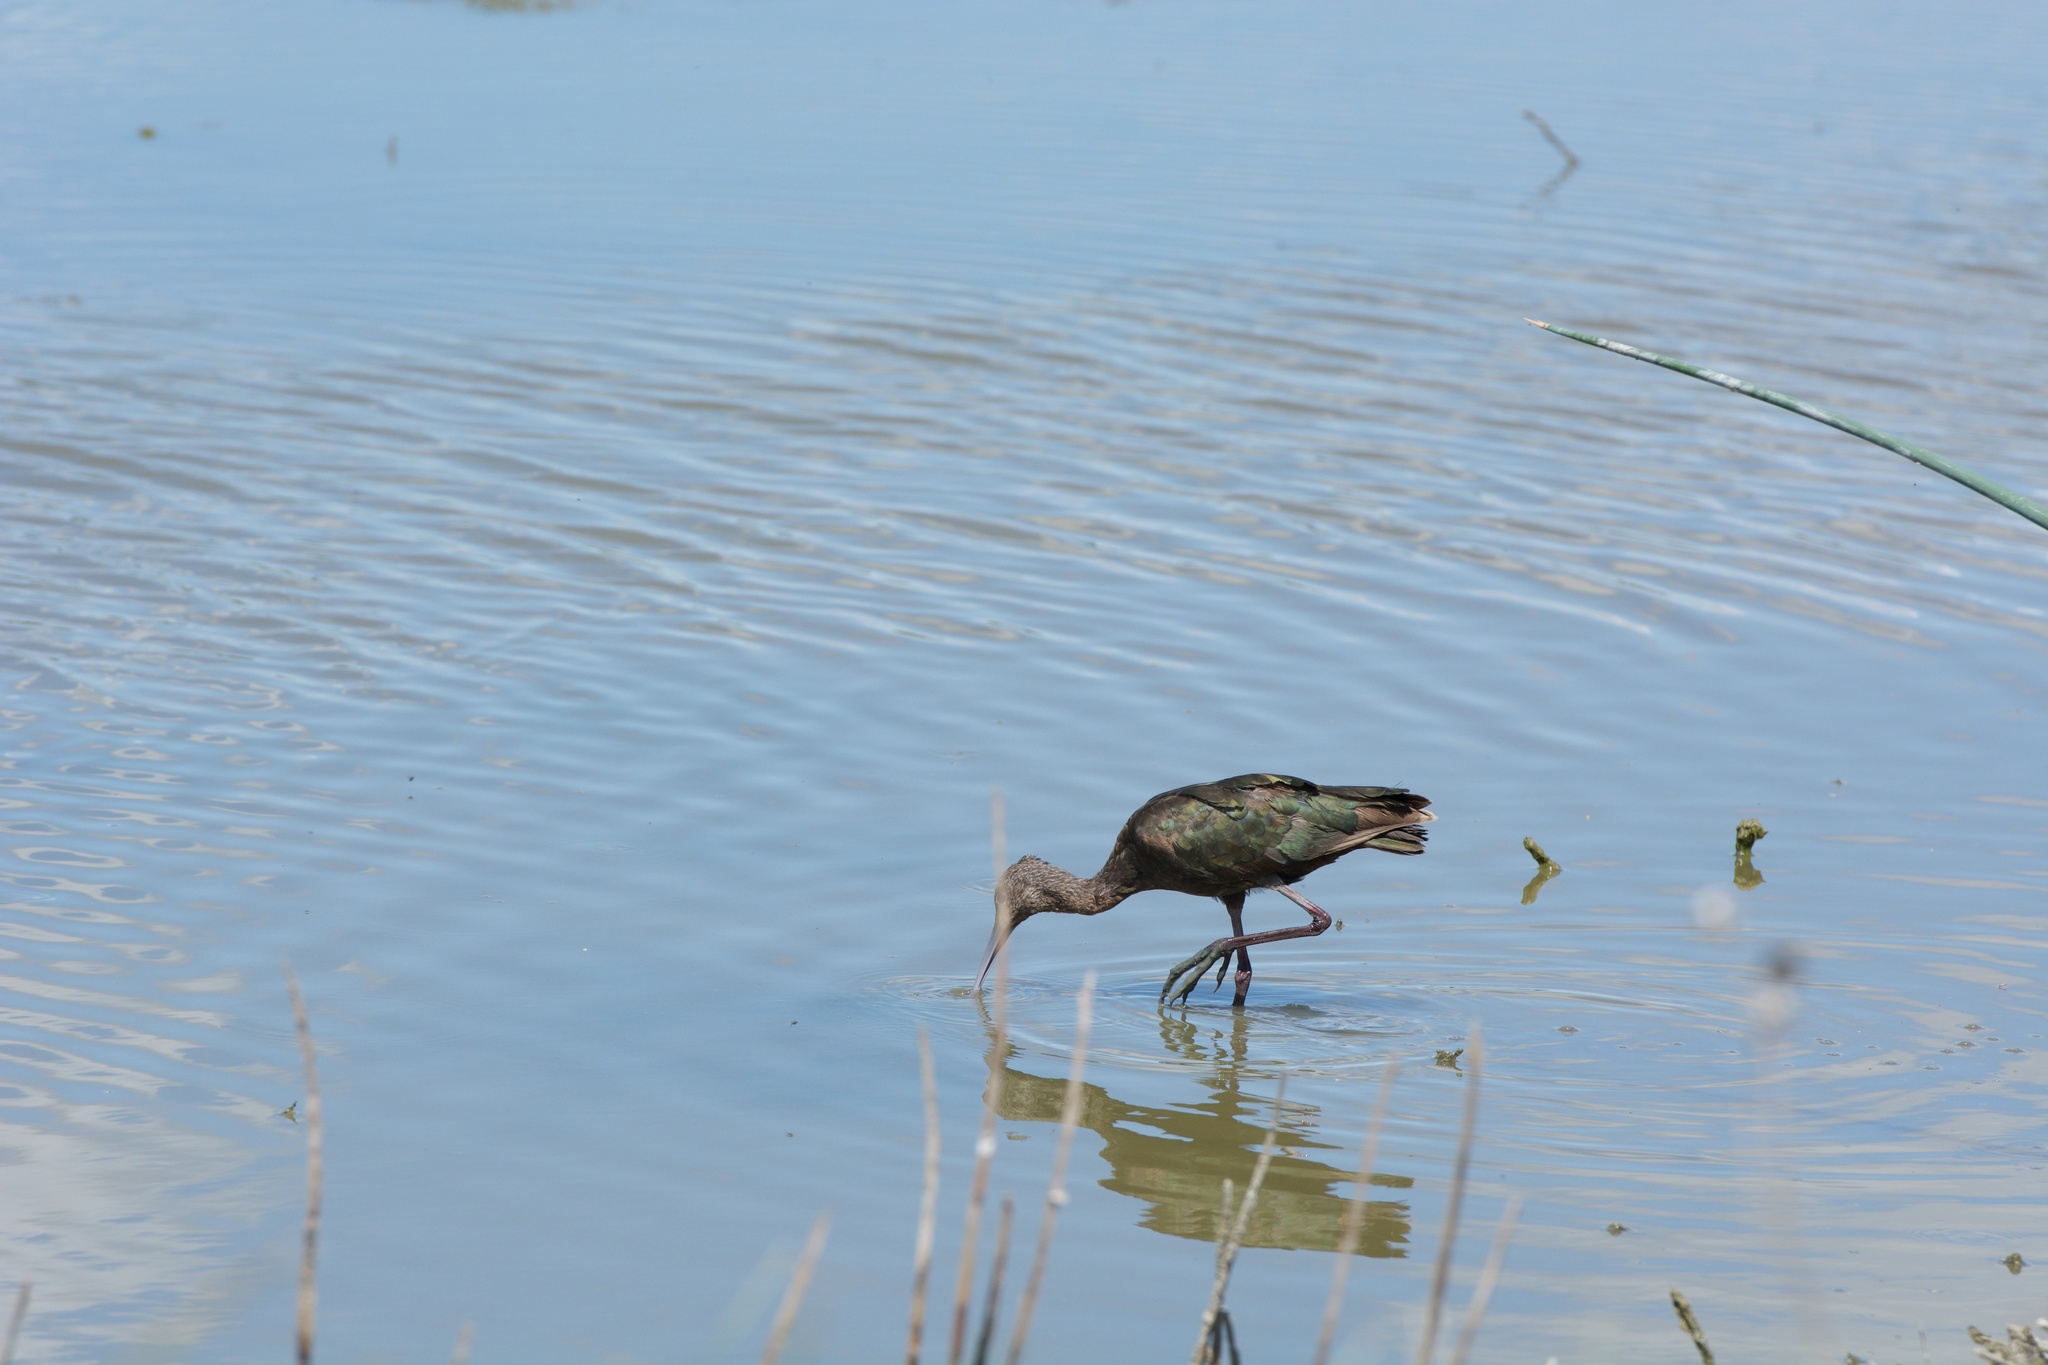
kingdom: Animalia
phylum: Chordata
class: Aves
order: Pelecaniformes
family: Threskiornithidae
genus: Plegadis
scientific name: Plegadis chihi
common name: White-faced ibis
